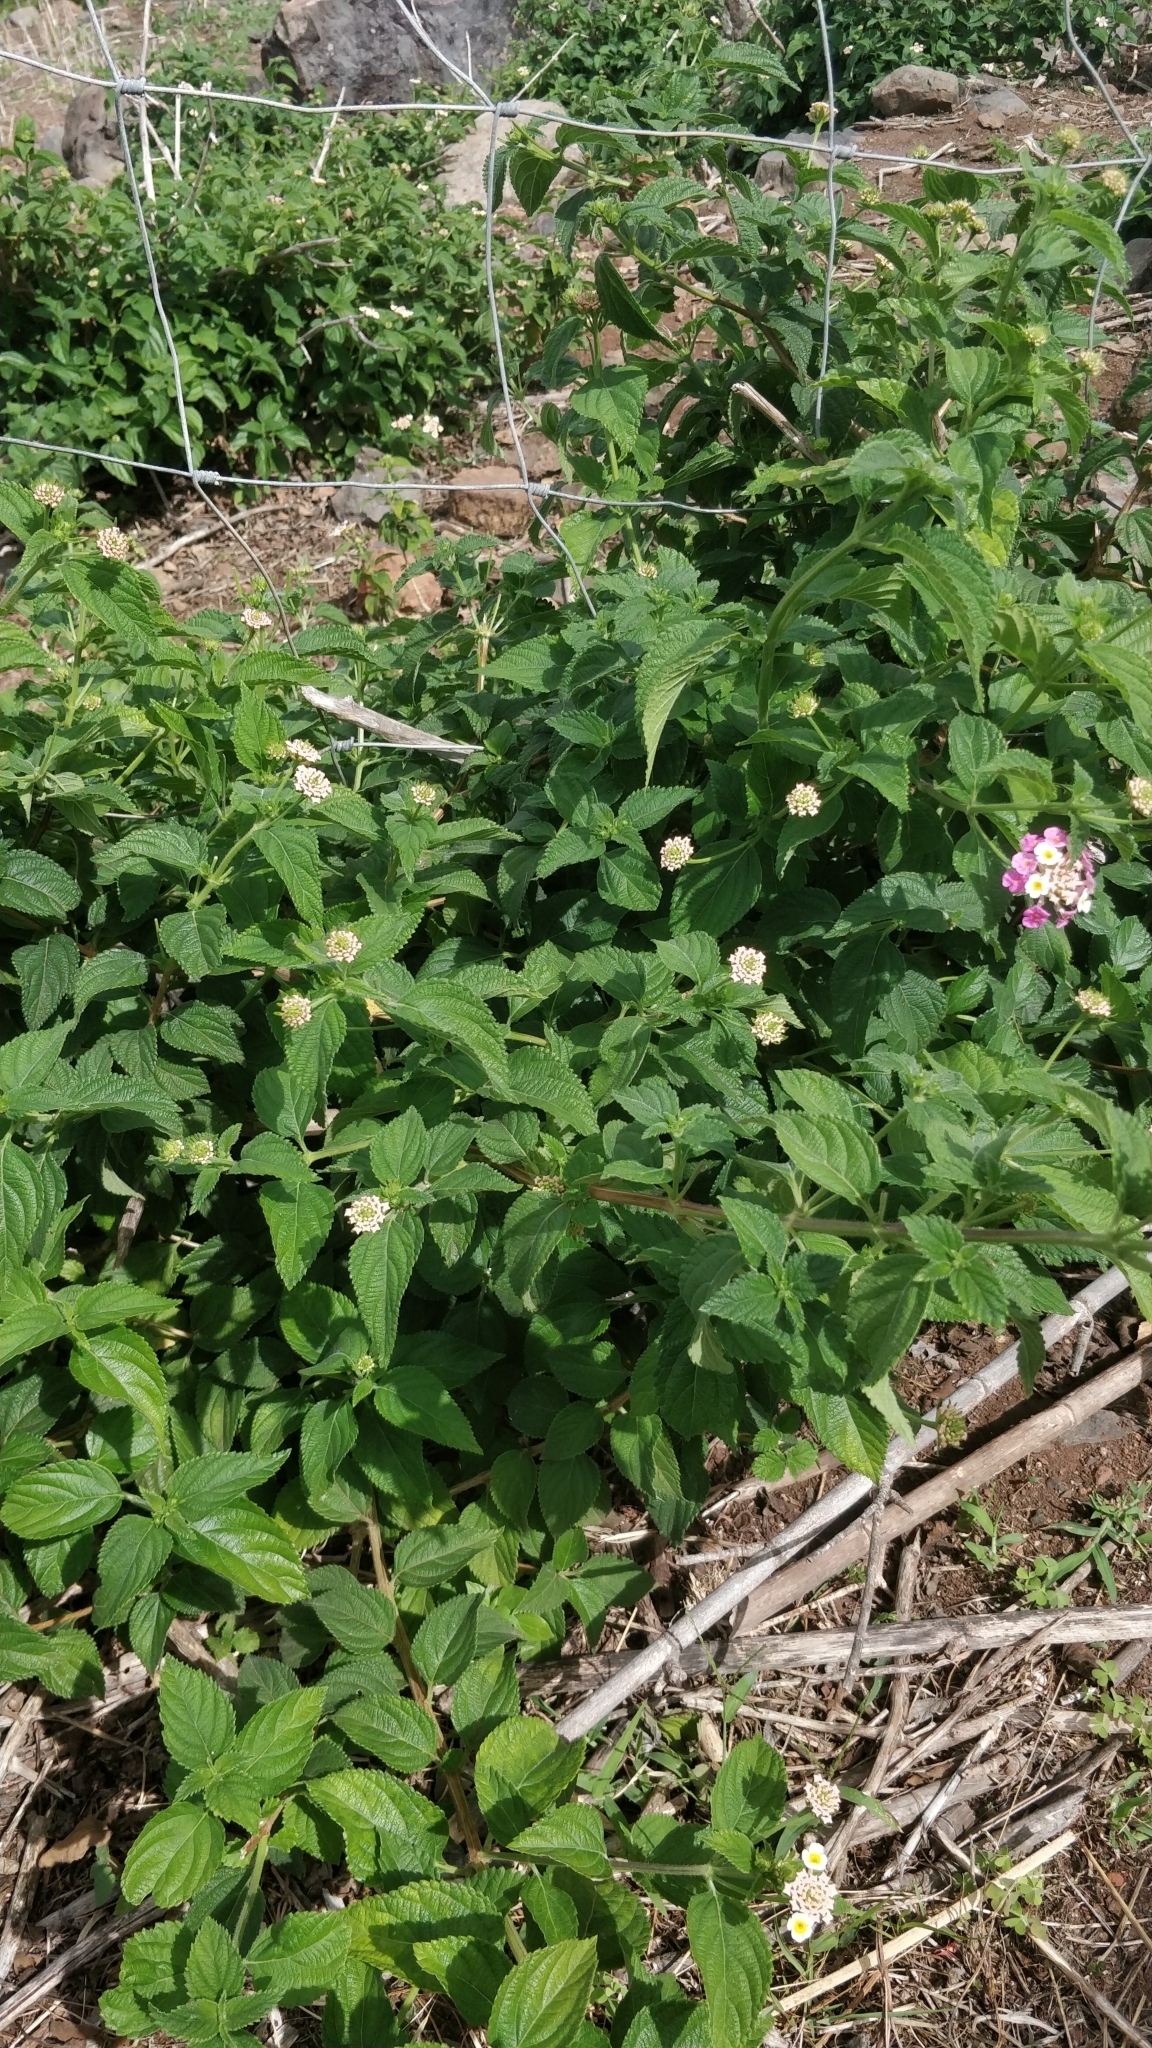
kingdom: Plantae
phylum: Tracheophyta
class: Magnoliopsida
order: Lamiales
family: Verbenaceae
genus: Lantana
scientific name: Lantana camara
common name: Lantana
